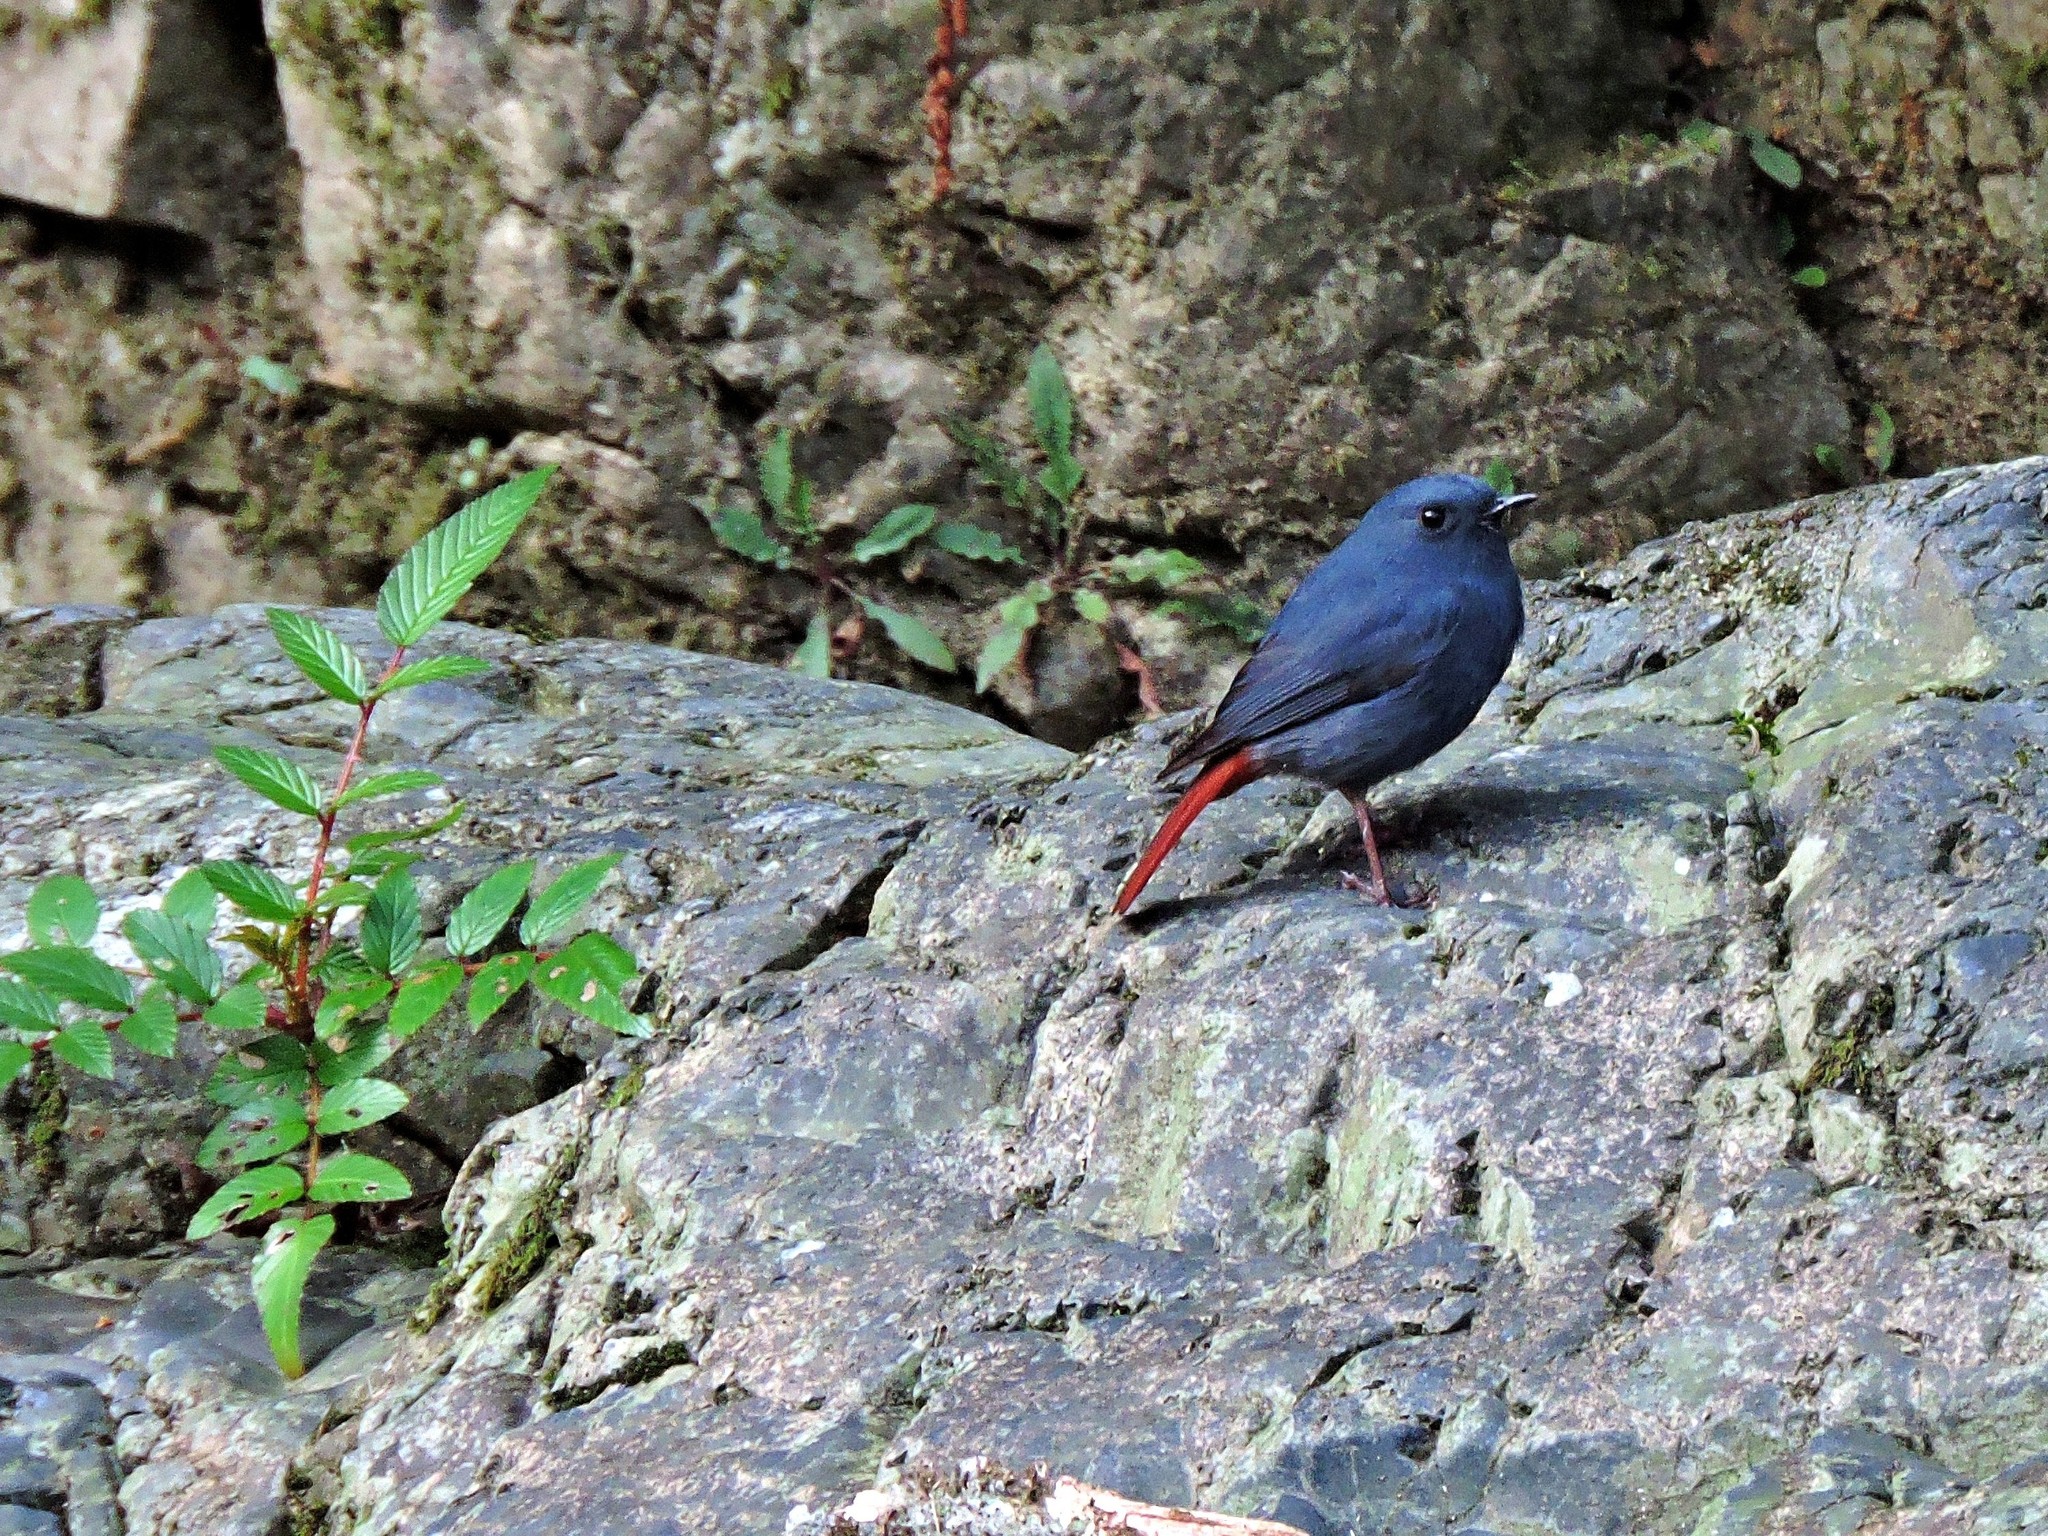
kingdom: Animalia
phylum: Chordata
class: Aves
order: Passeriformes
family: Muscicapidae
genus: Phoenicurus
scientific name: Phoenicurus fuliginosus
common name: Plumbeous water redstart
